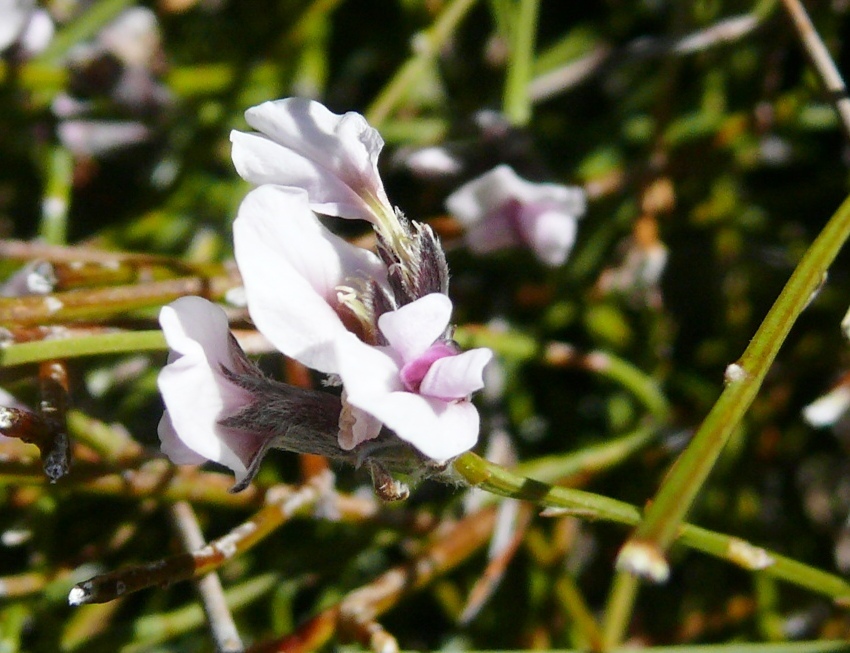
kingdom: Plantae
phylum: Tracheophyta
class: Magnoliopsida
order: Fabales
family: Fabaceae
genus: Amphithalea
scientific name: Amphithalea cedarbergensis
